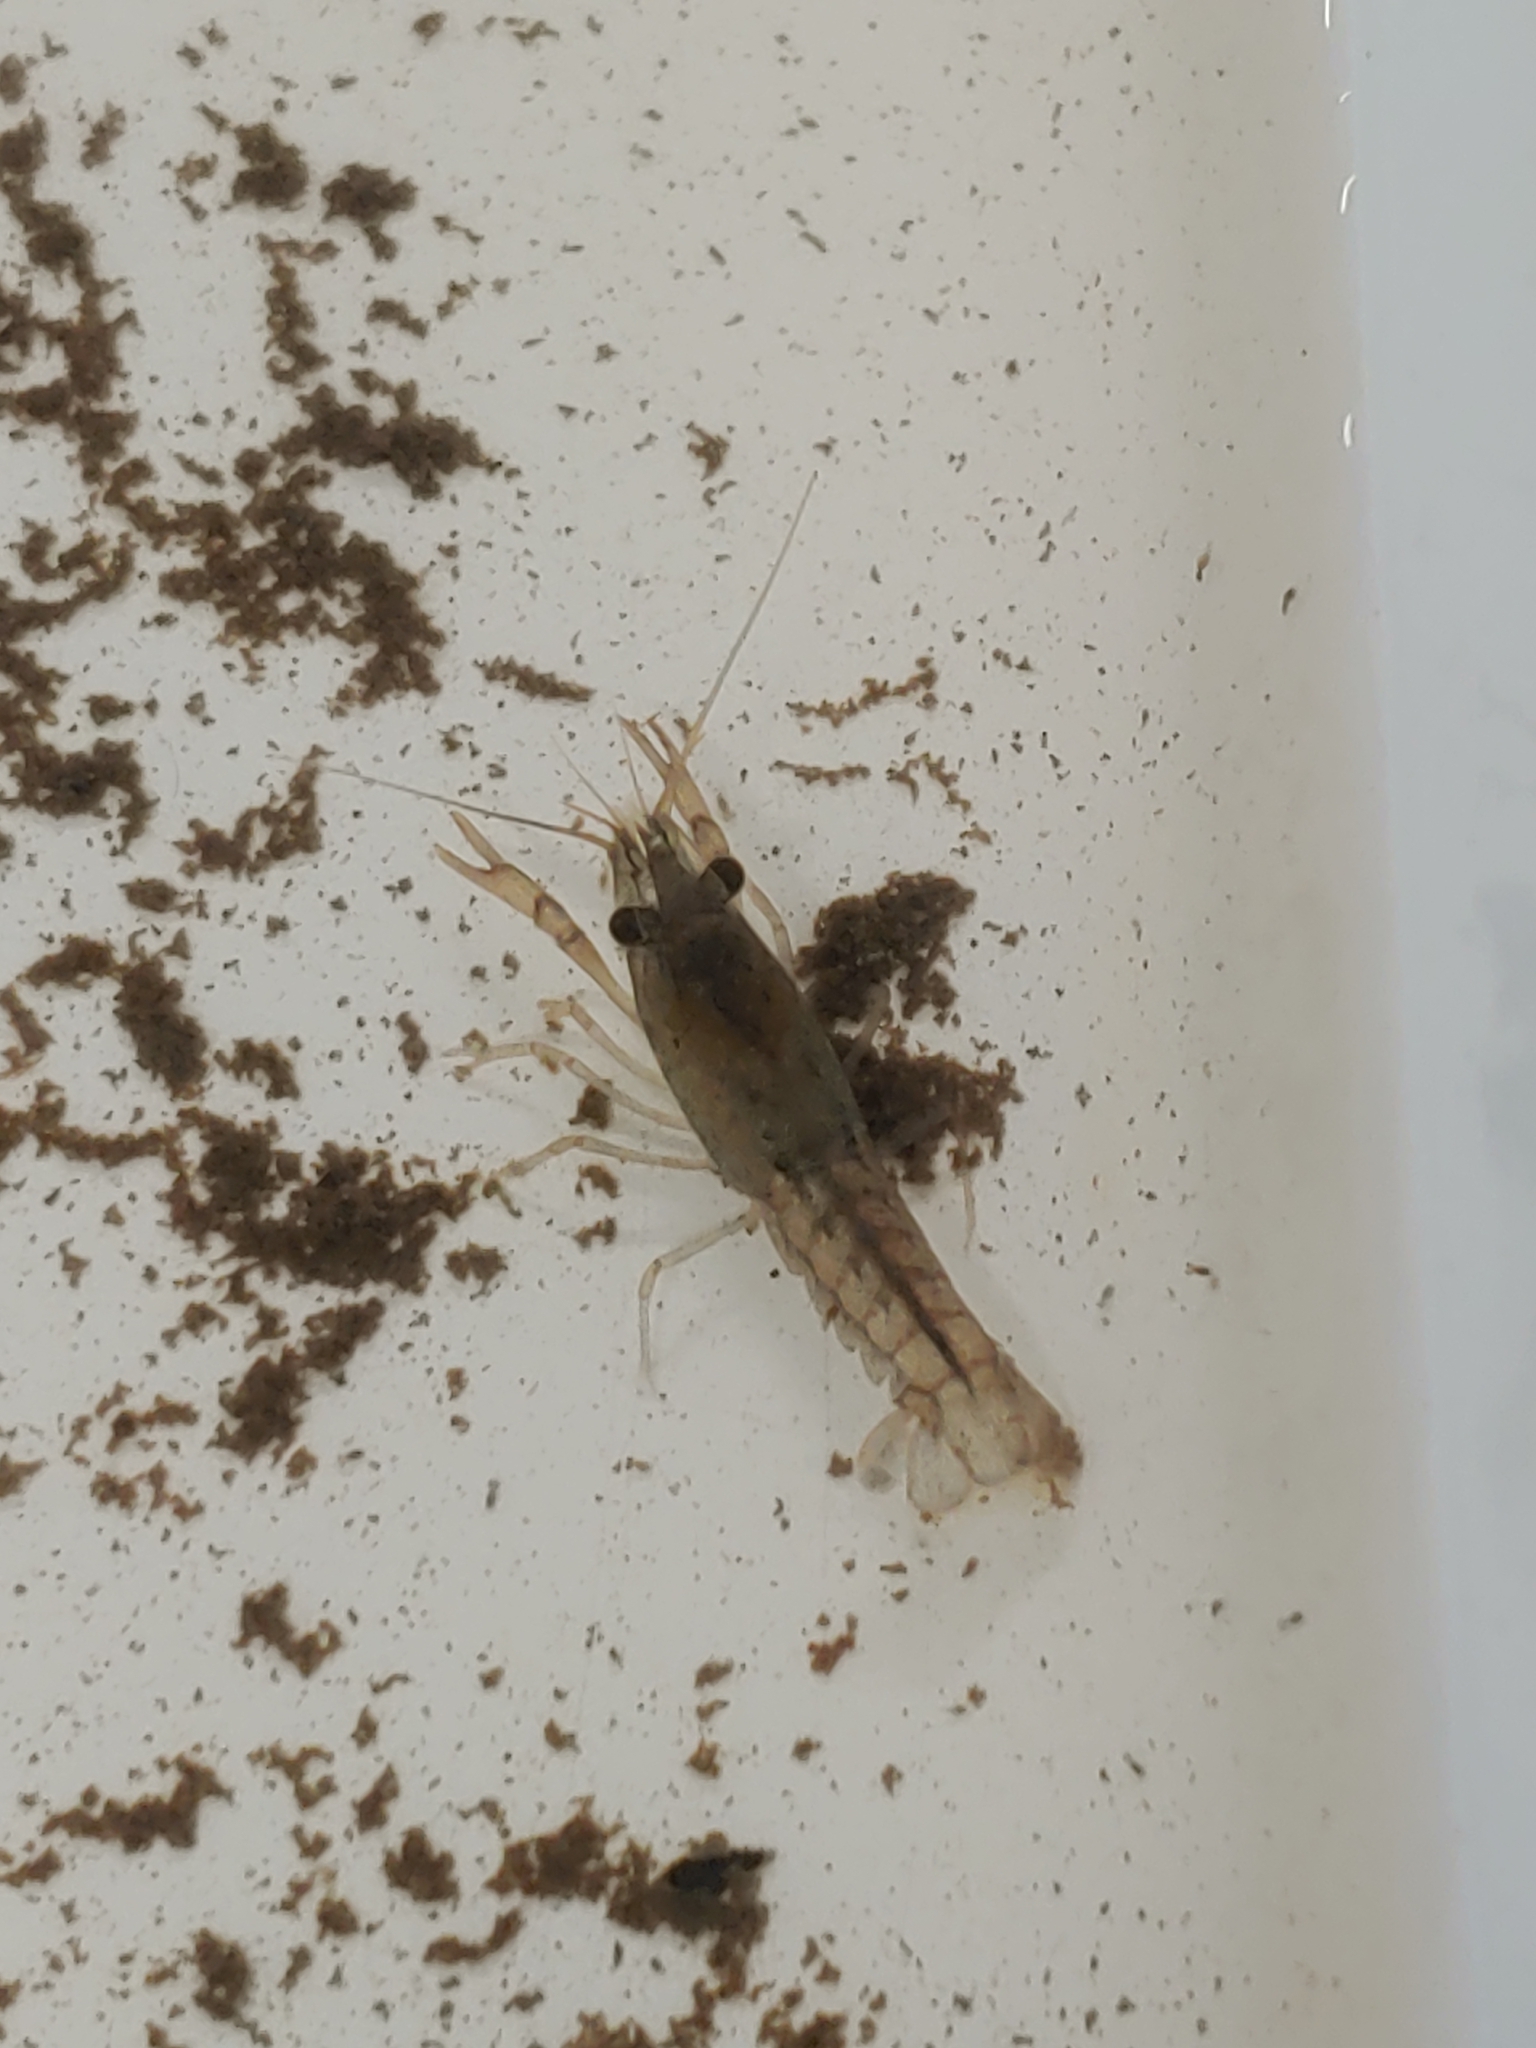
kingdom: Animalia
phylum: Arthropoda
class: Malacostraca
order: Decapoda
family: Cambaridae
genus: Procambarus
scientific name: Procambarus clarkii
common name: Red swamp crayfish
